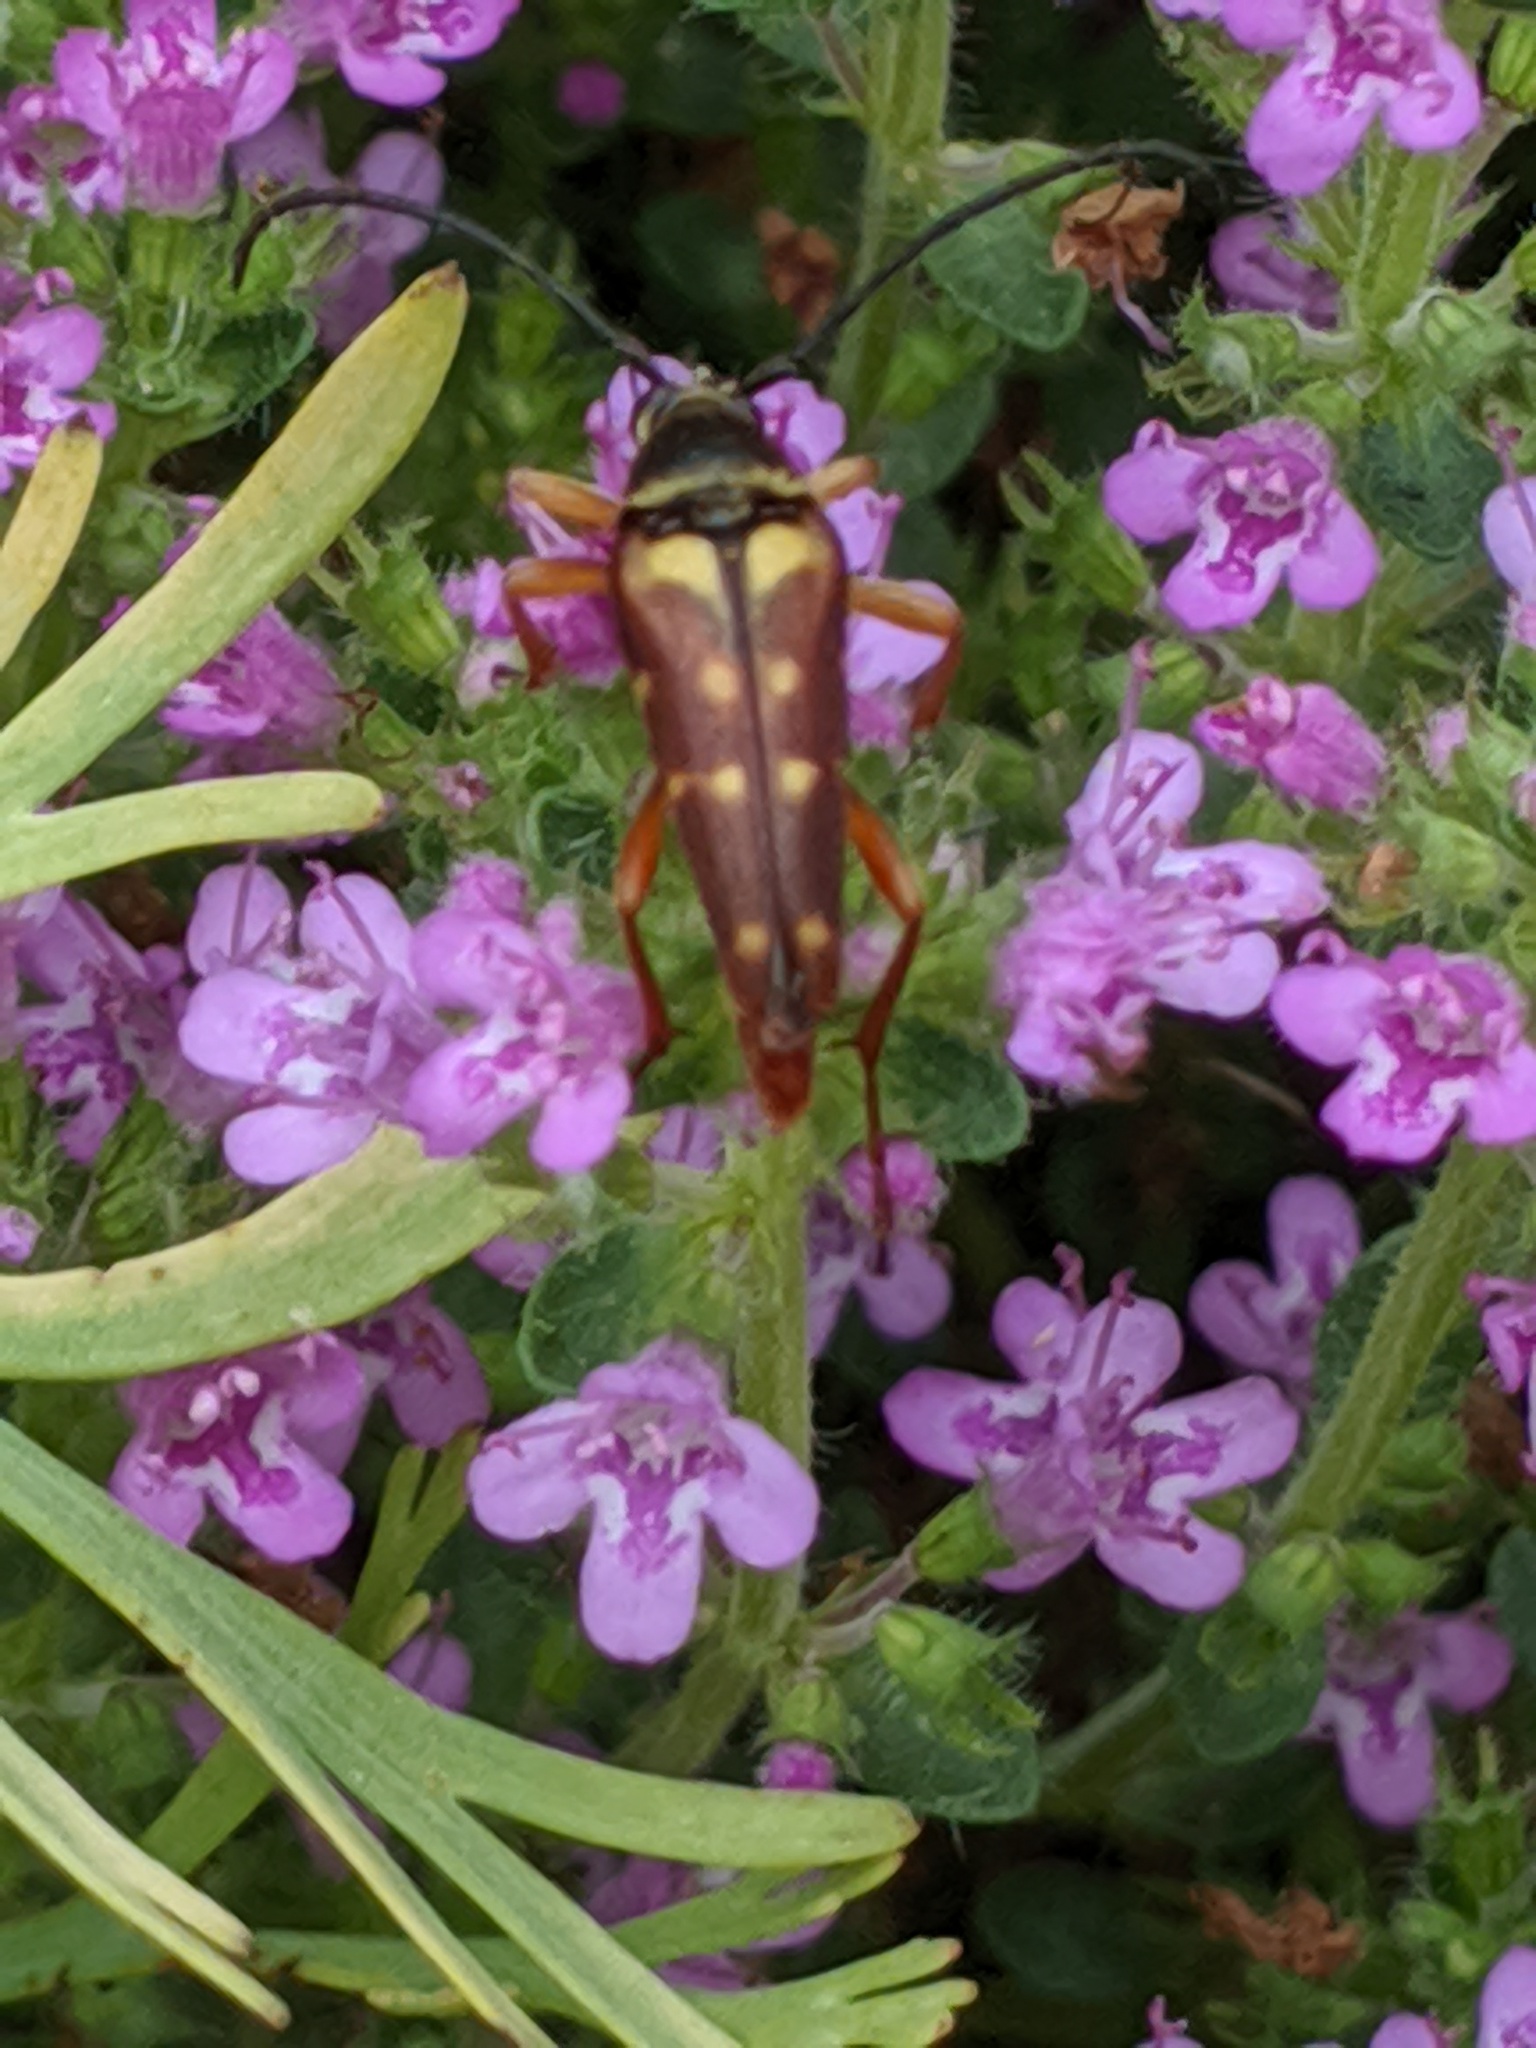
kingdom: Animalia
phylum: Arthropoda
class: Insecta
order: Coleoptera
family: Cerambycidae
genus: Typocerus
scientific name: Typocerus velutinus
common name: Banded longhorn beetle
